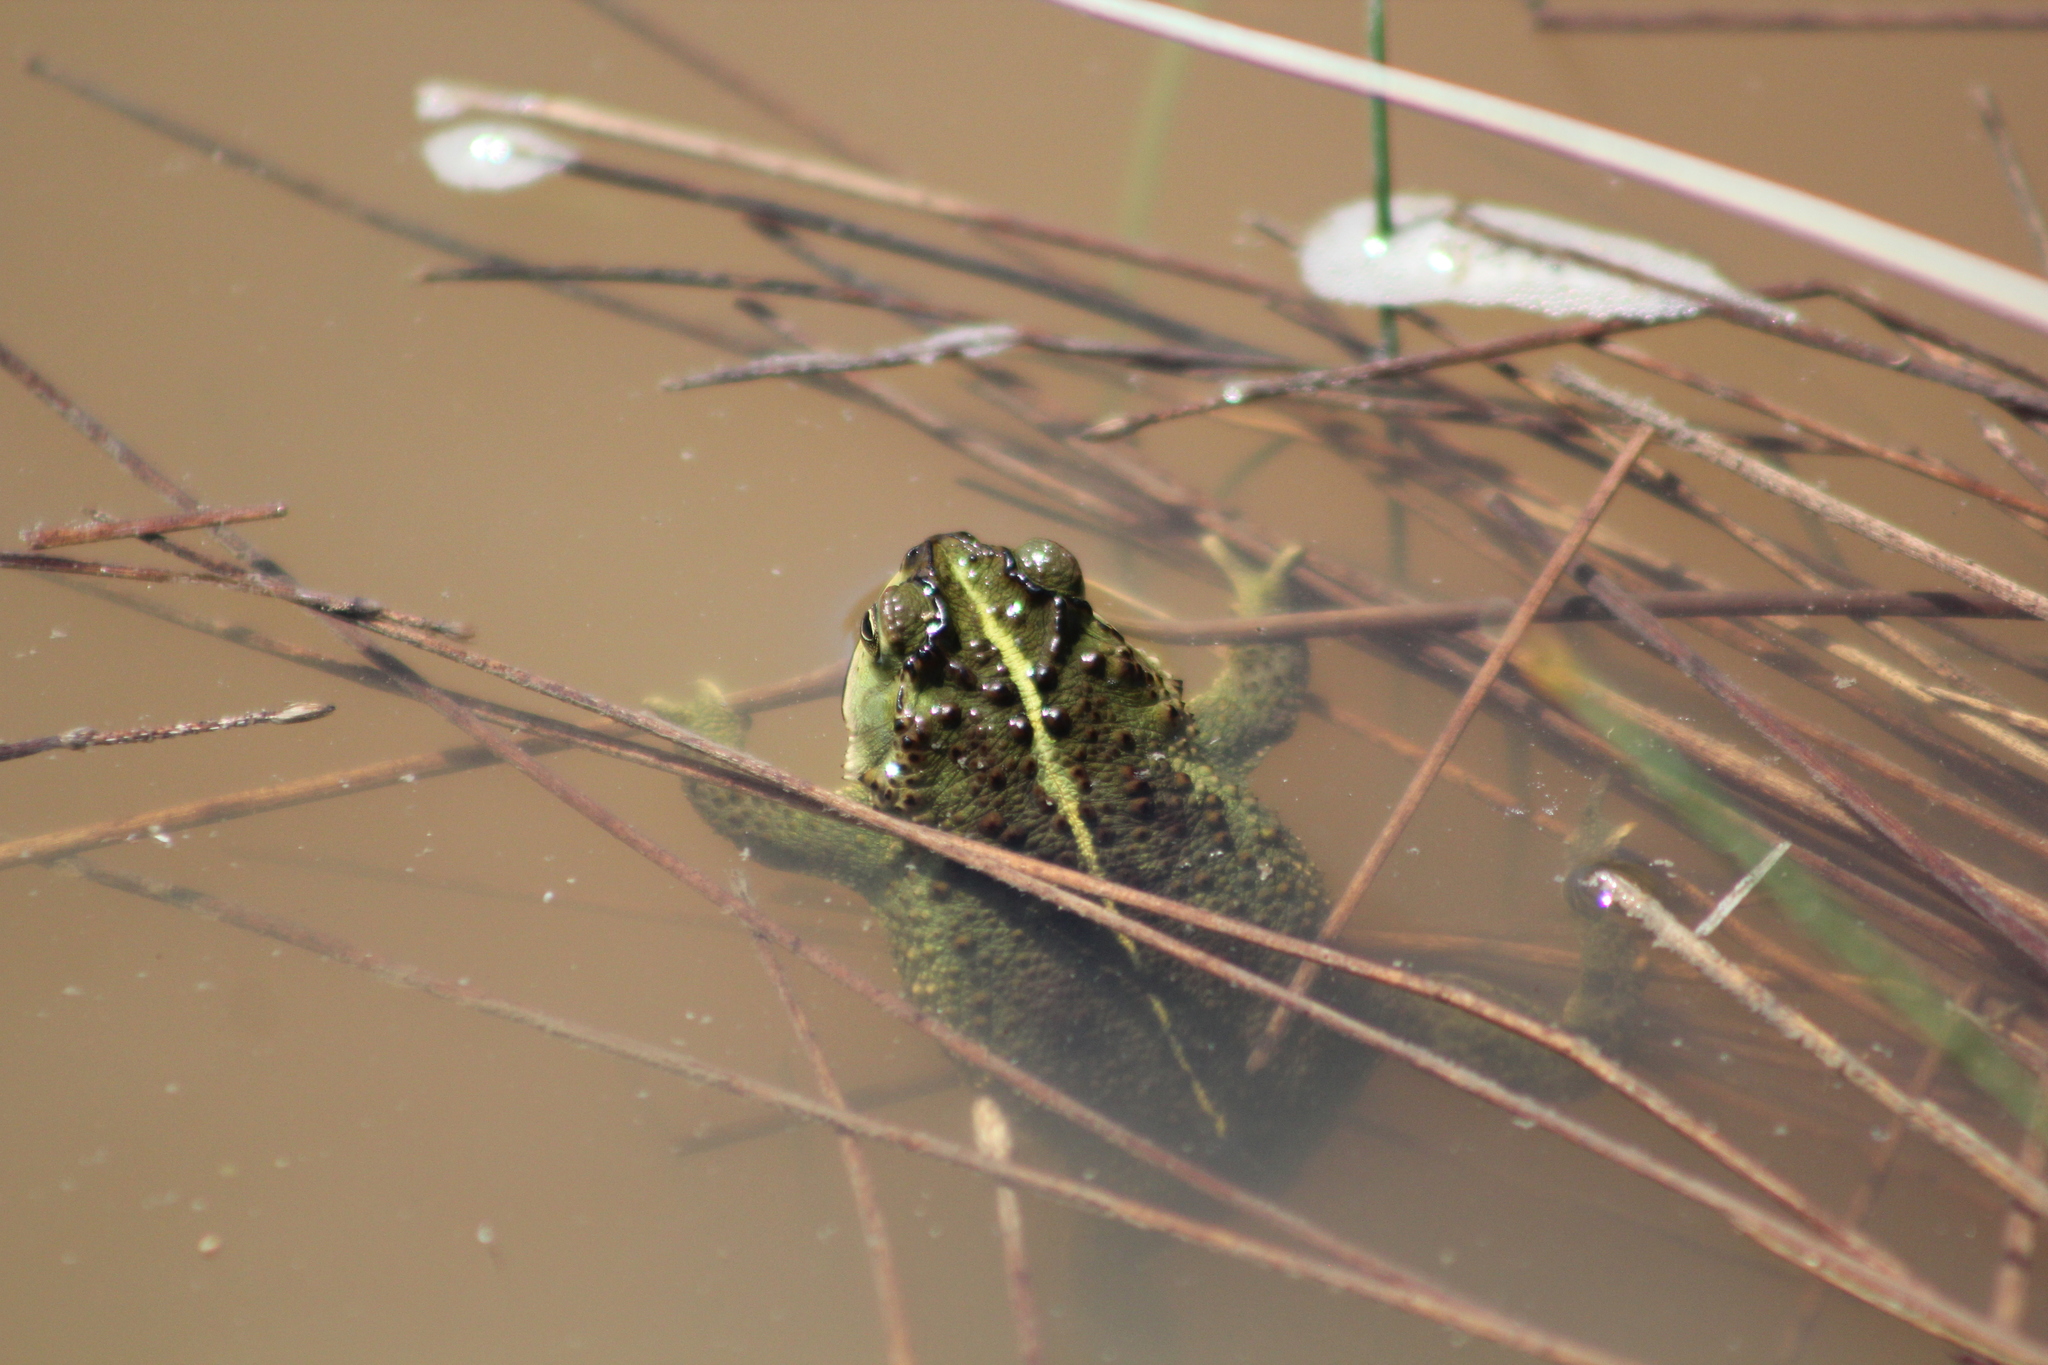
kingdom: Animalia
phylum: Chordata
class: Amphibia
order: Anura
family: Bufonidae
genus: Rhinella
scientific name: Rhinella dorbignyi
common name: D´orbigny’s toad
